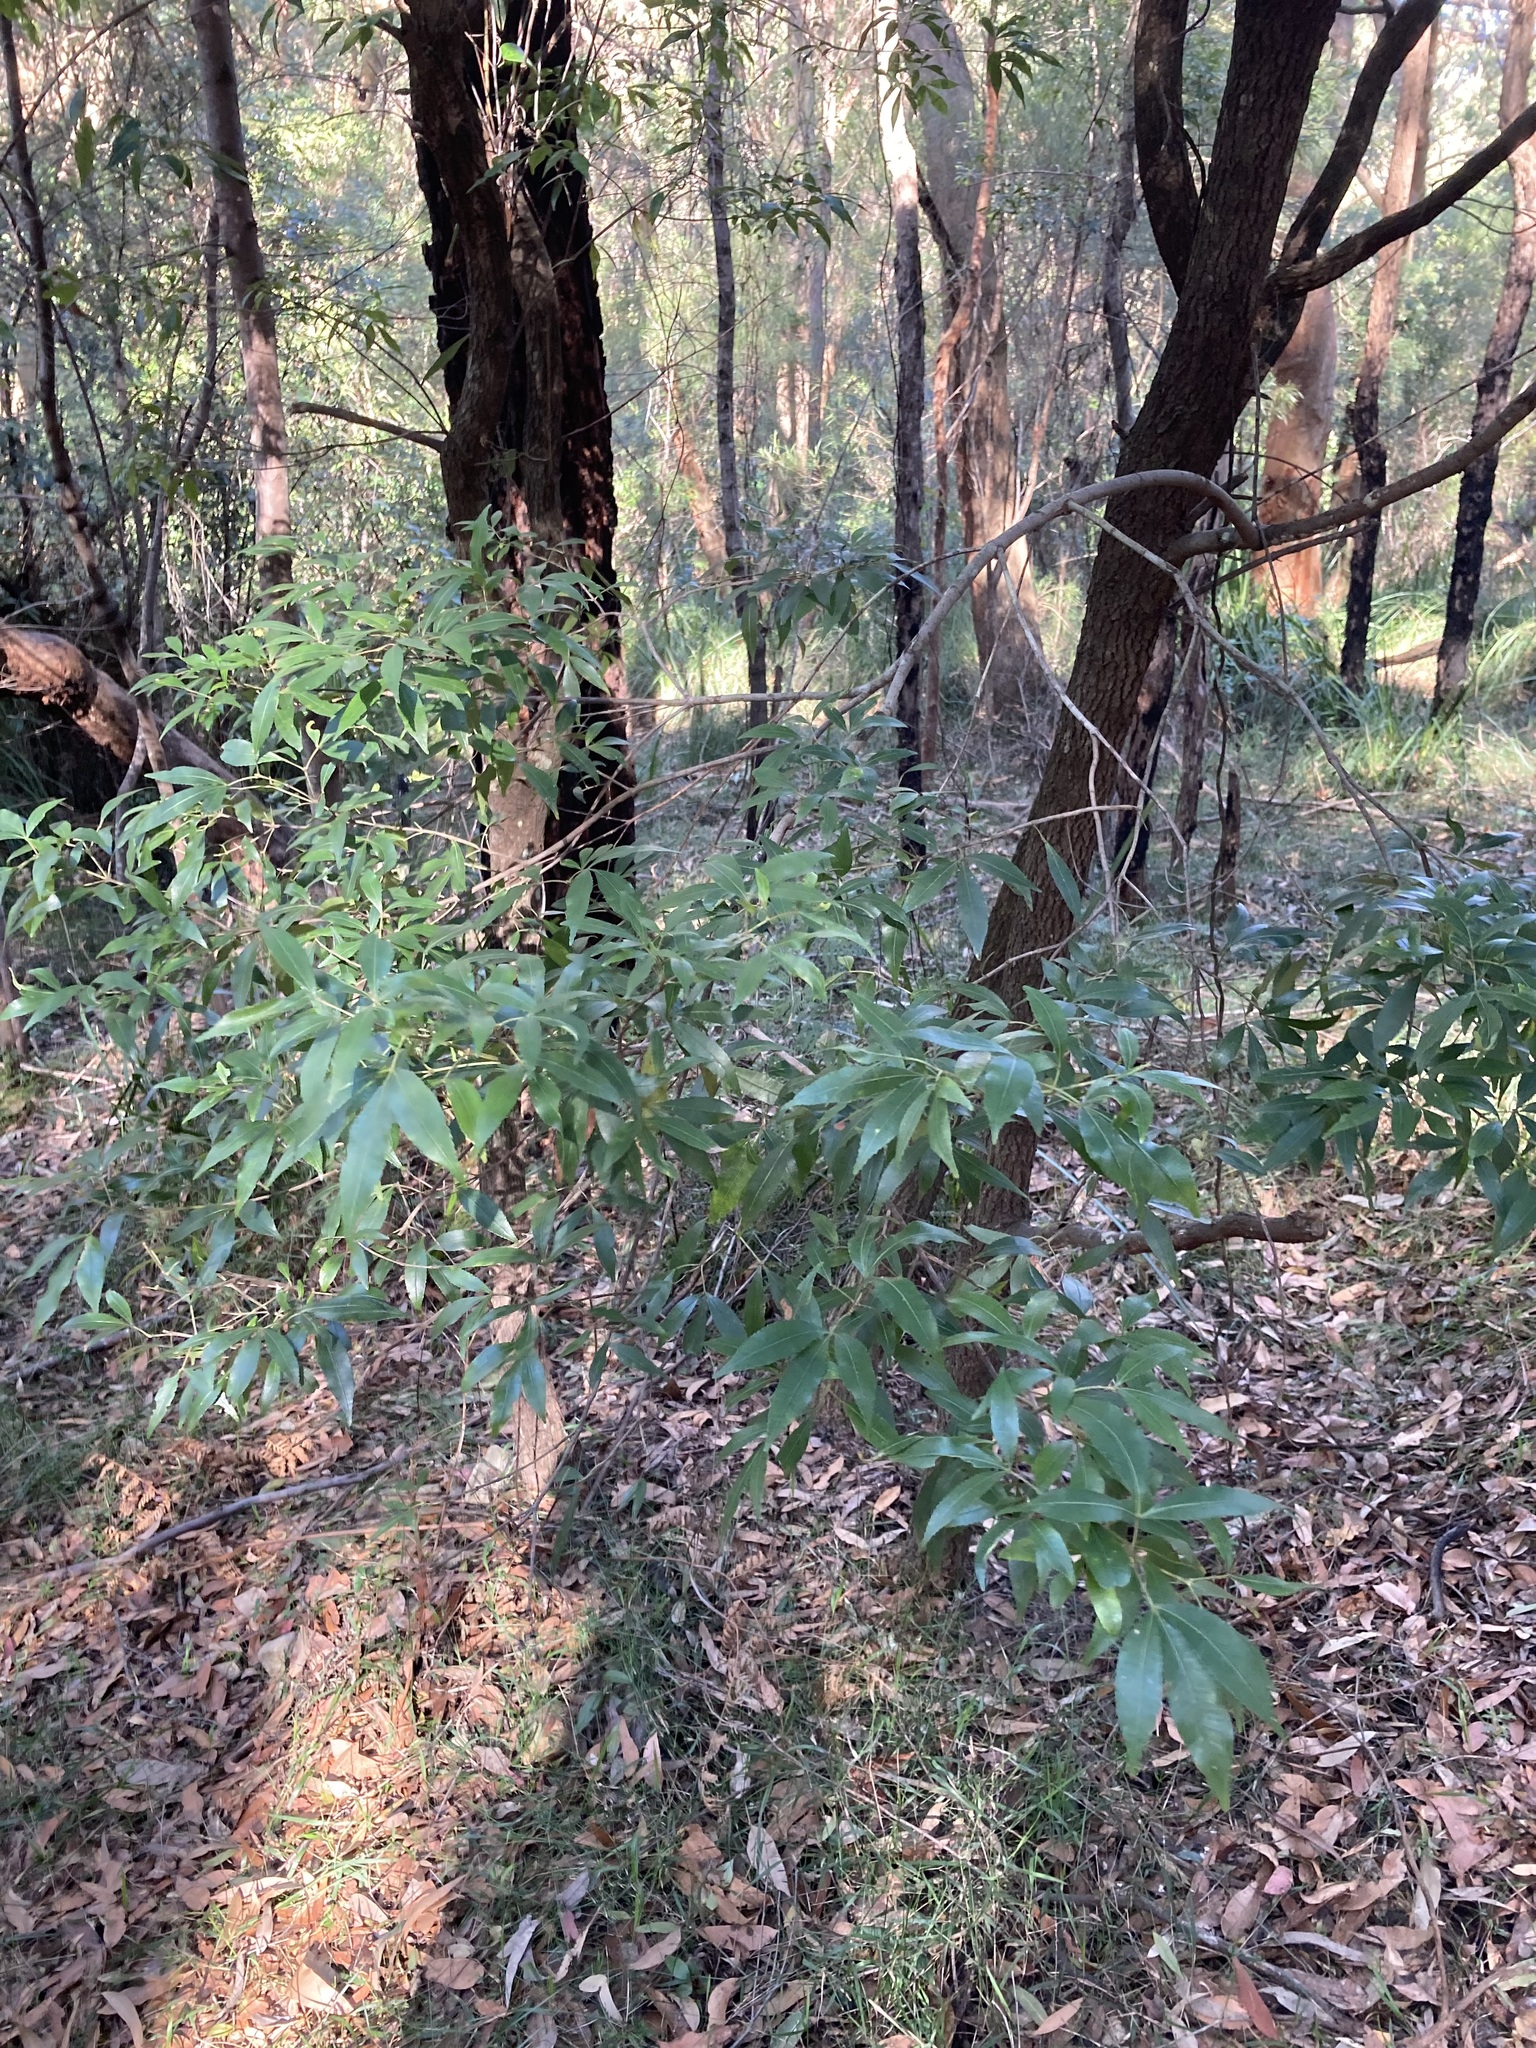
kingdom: Plantae
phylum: Tracheophyta
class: Magnoliopsida
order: Oxalidales
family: Cunoniaceae
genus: Ceratopetalum
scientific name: Ceratopetalum gummiferum
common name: Christmasbush
